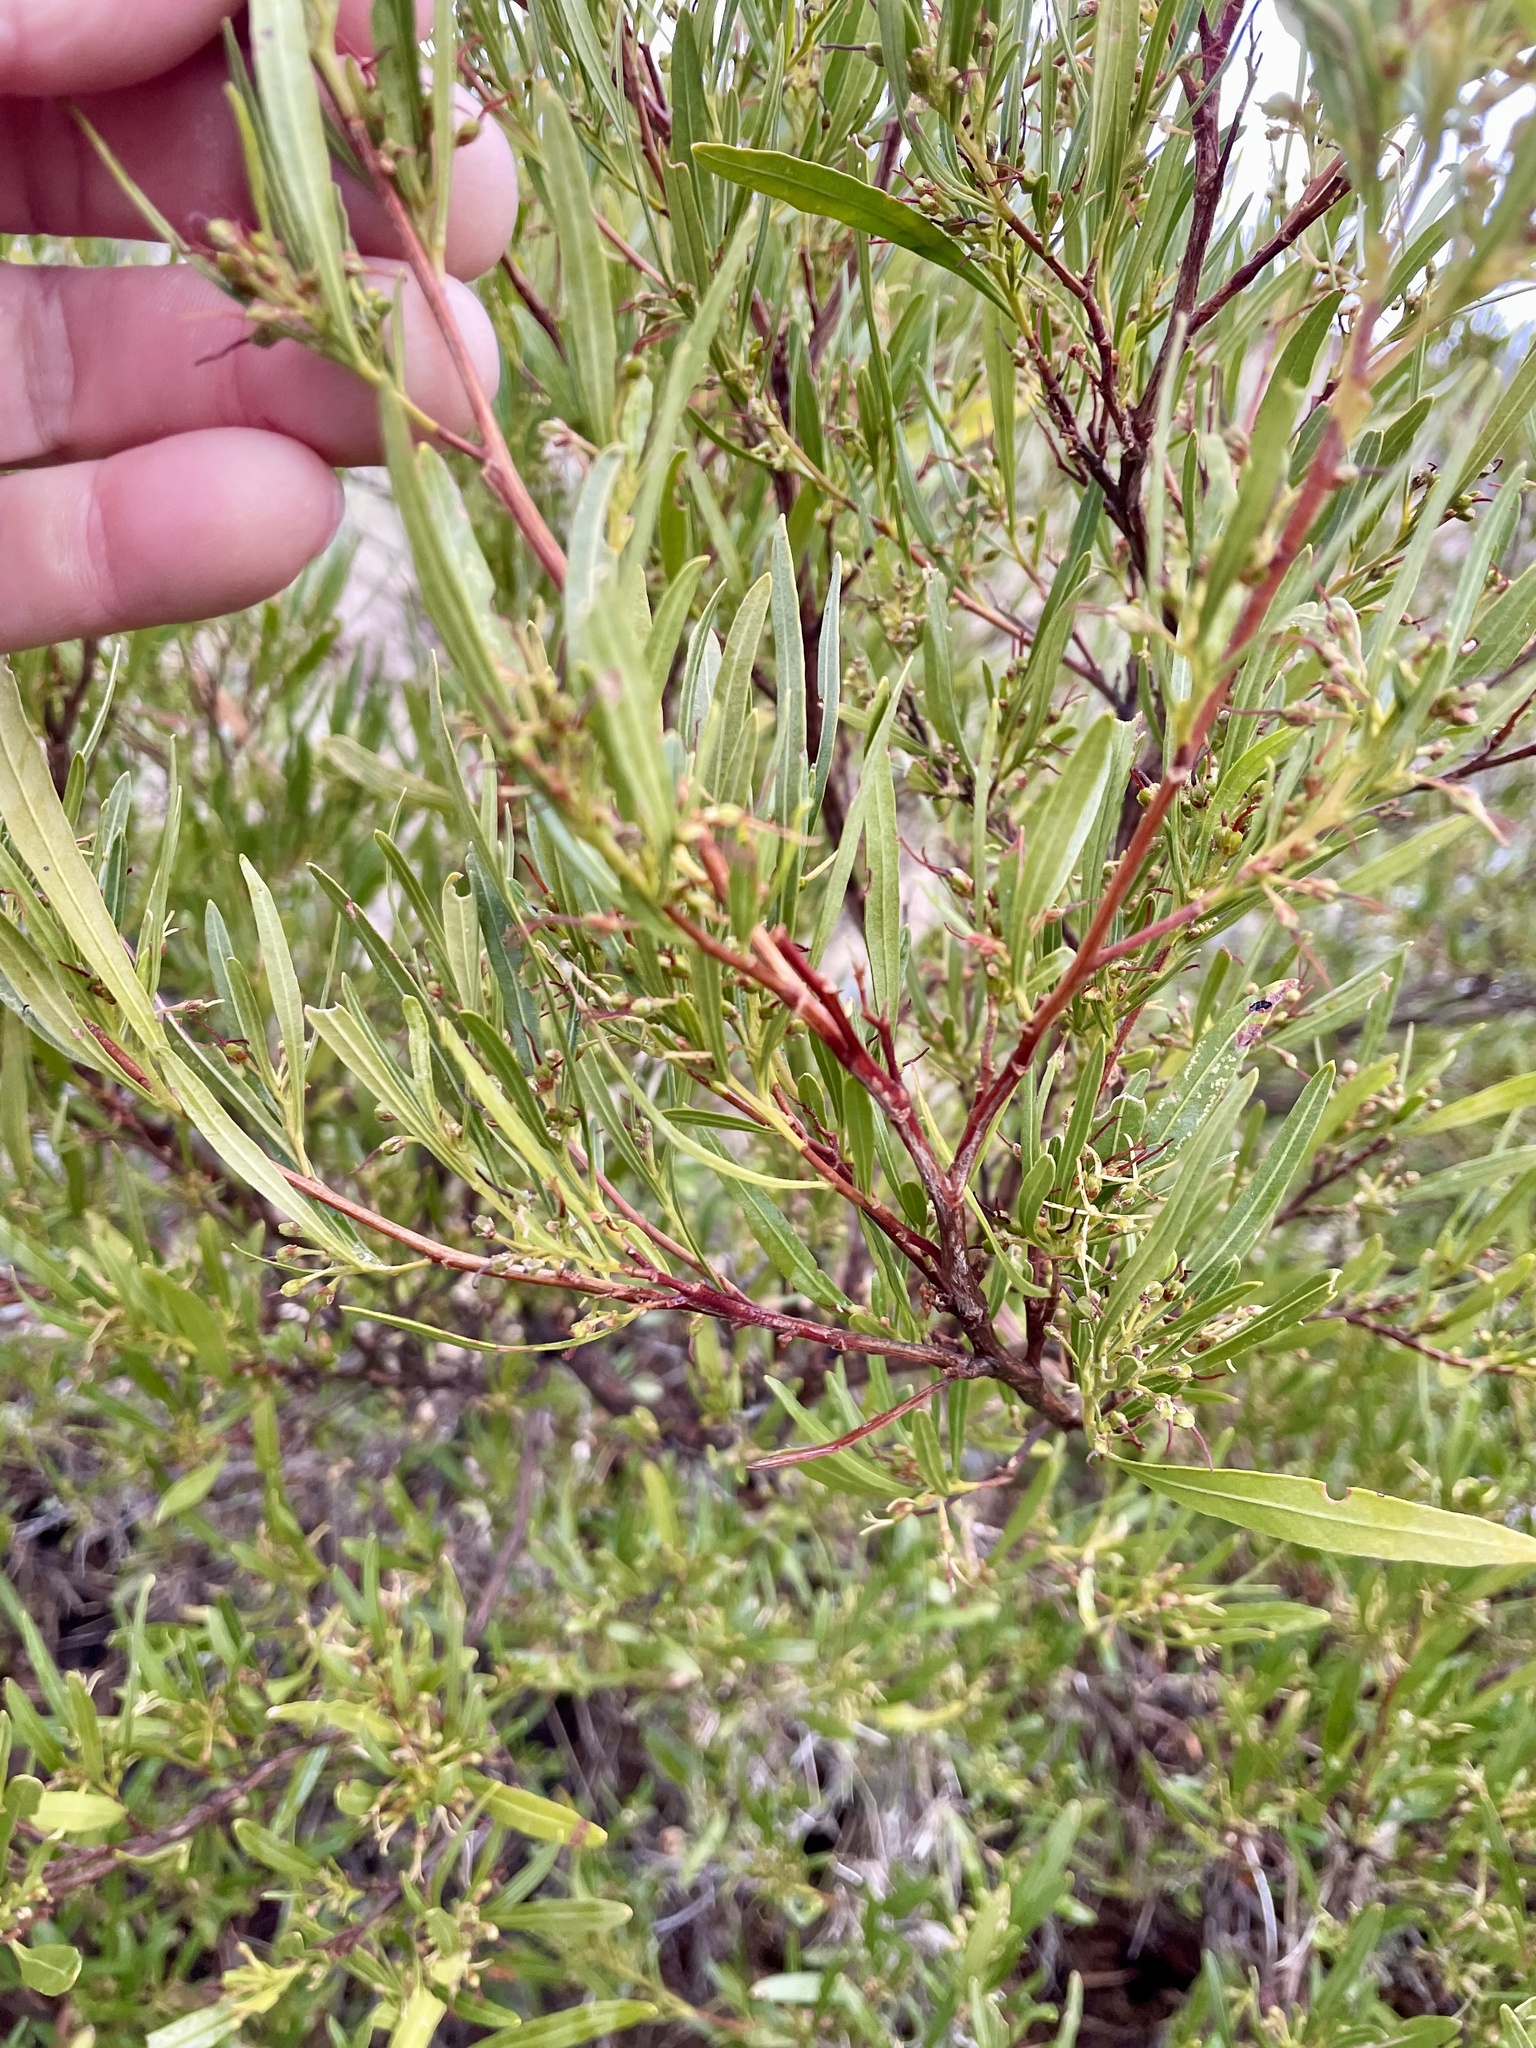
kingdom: Plantae
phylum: Tracheophyta
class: Magnoliopsida
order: Sapindales
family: Sapindaceae
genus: Dodonaea
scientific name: Dodonaea viscosa
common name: Hopbush
